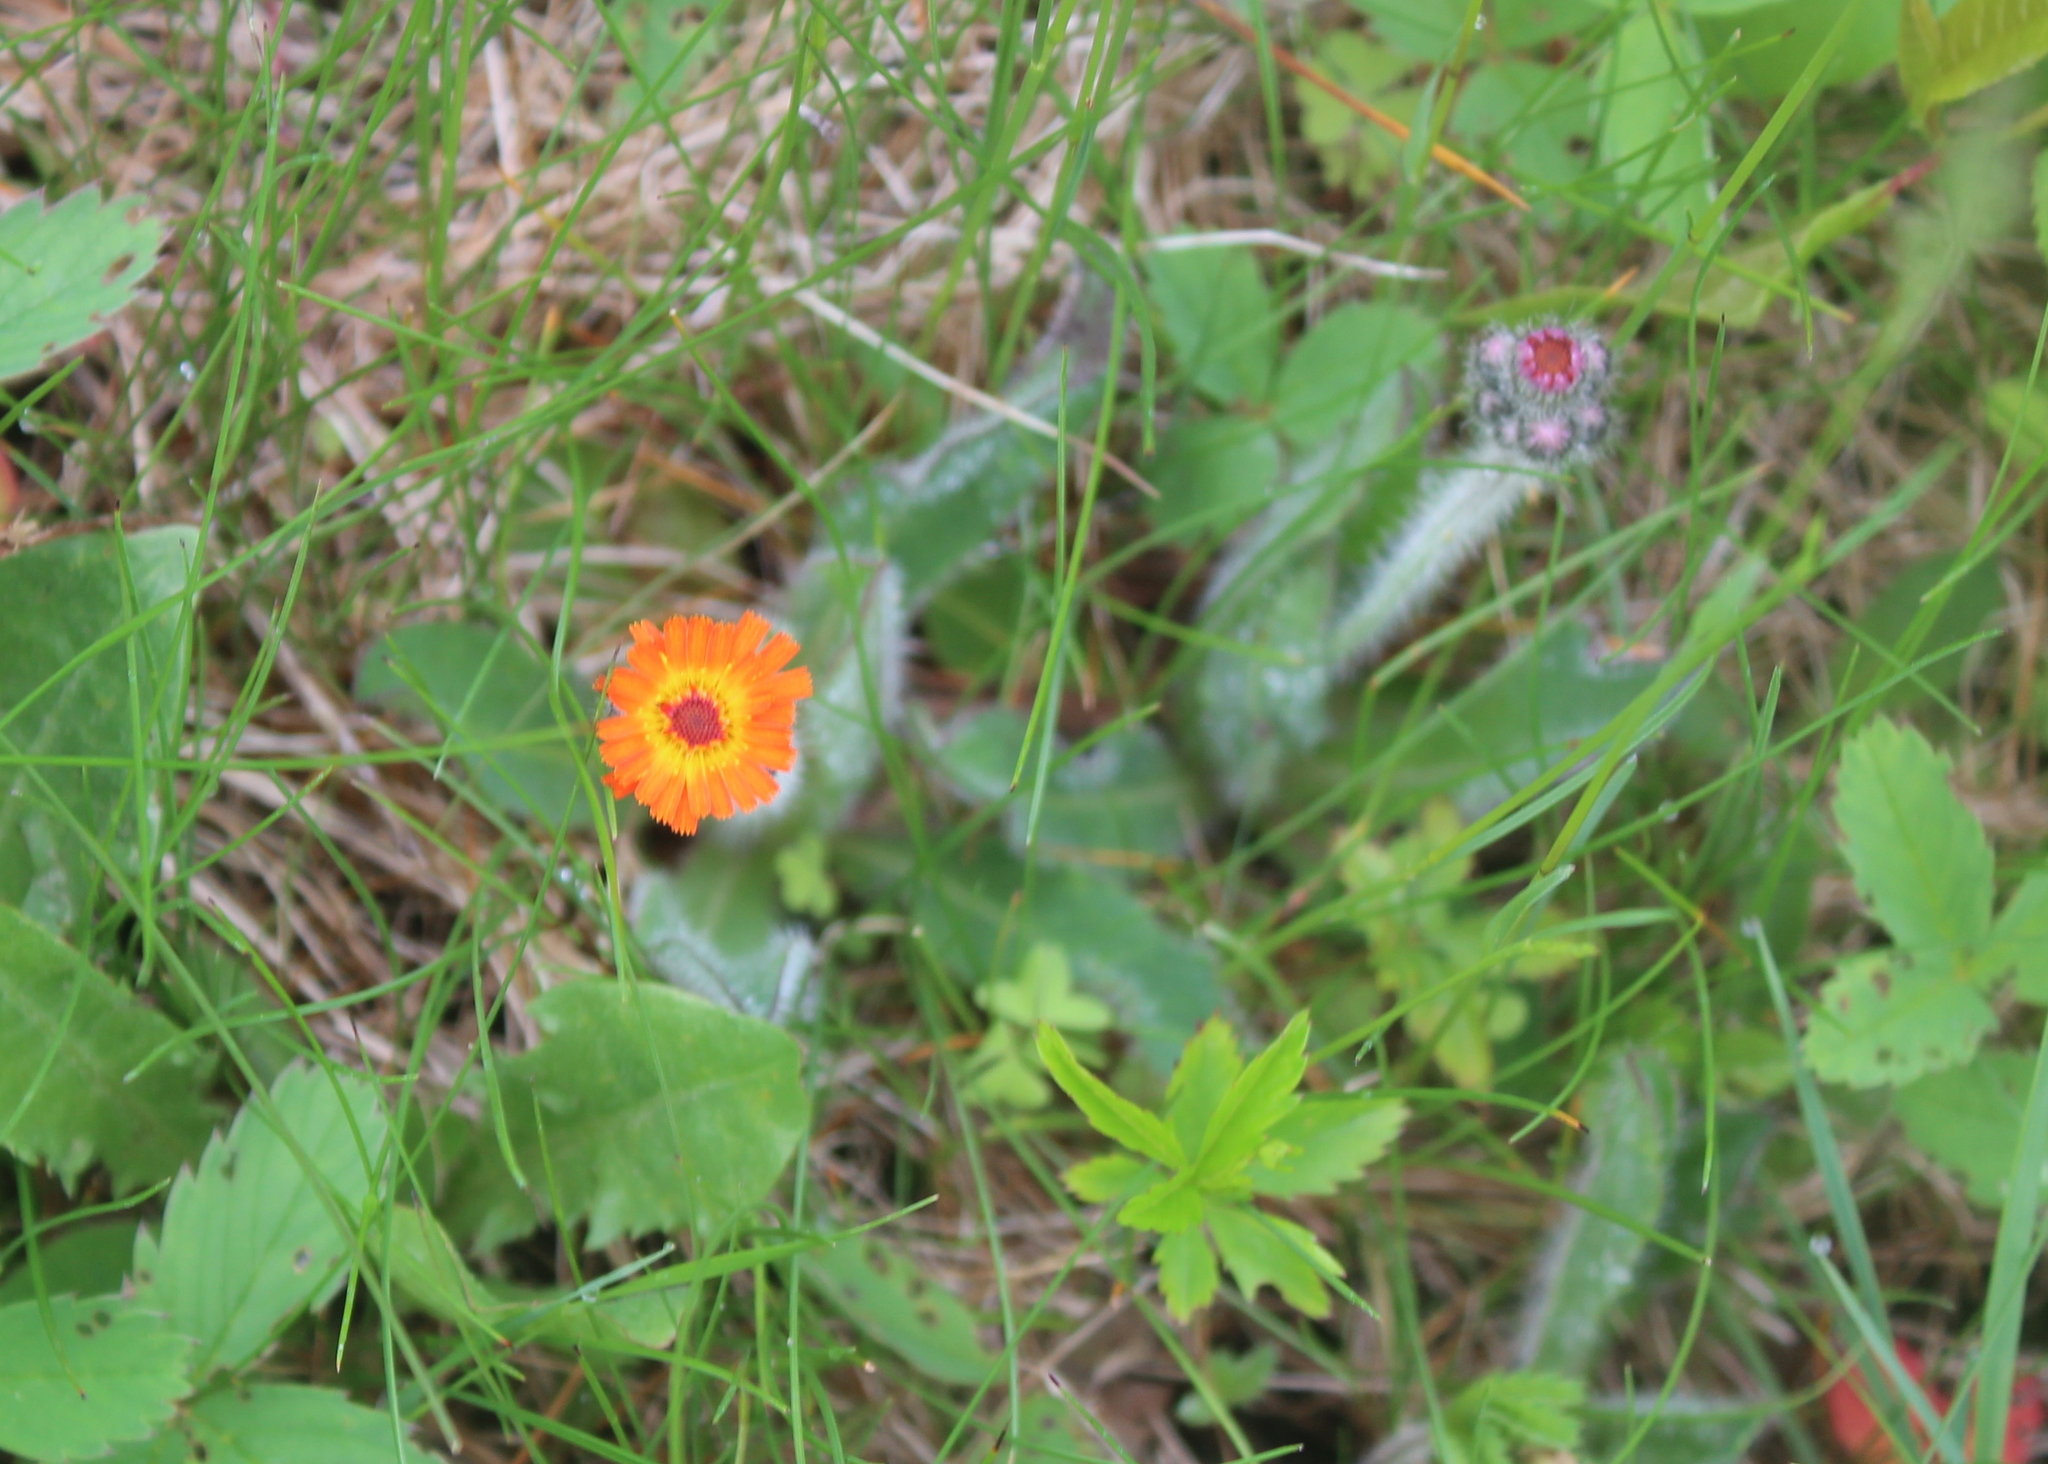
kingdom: Plantae
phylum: Tracheophyta
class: Magnoliopsida
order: Asterales
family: Asteraceae
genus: Pilosella
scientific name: Pilosella aurantiaca
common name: Fox-and-cubs
